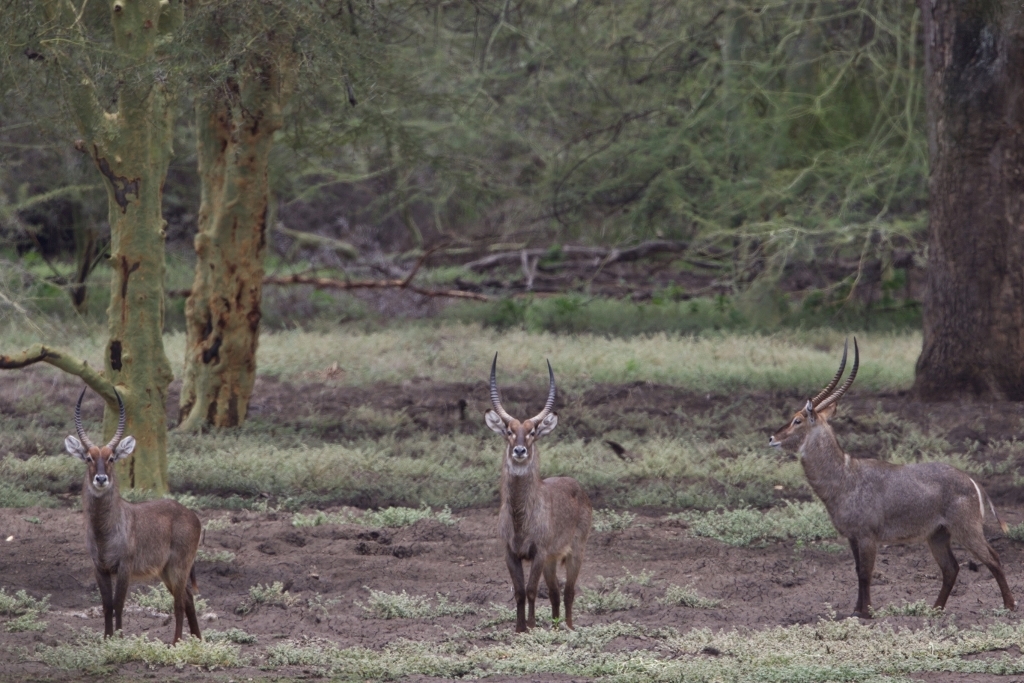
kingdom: Animalia
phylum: Chordata
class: Mammalia
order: Artiodactyla
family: Bovidae
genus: Kobus
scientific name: Kobus ellipsiprymnus
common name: Waterbuck
